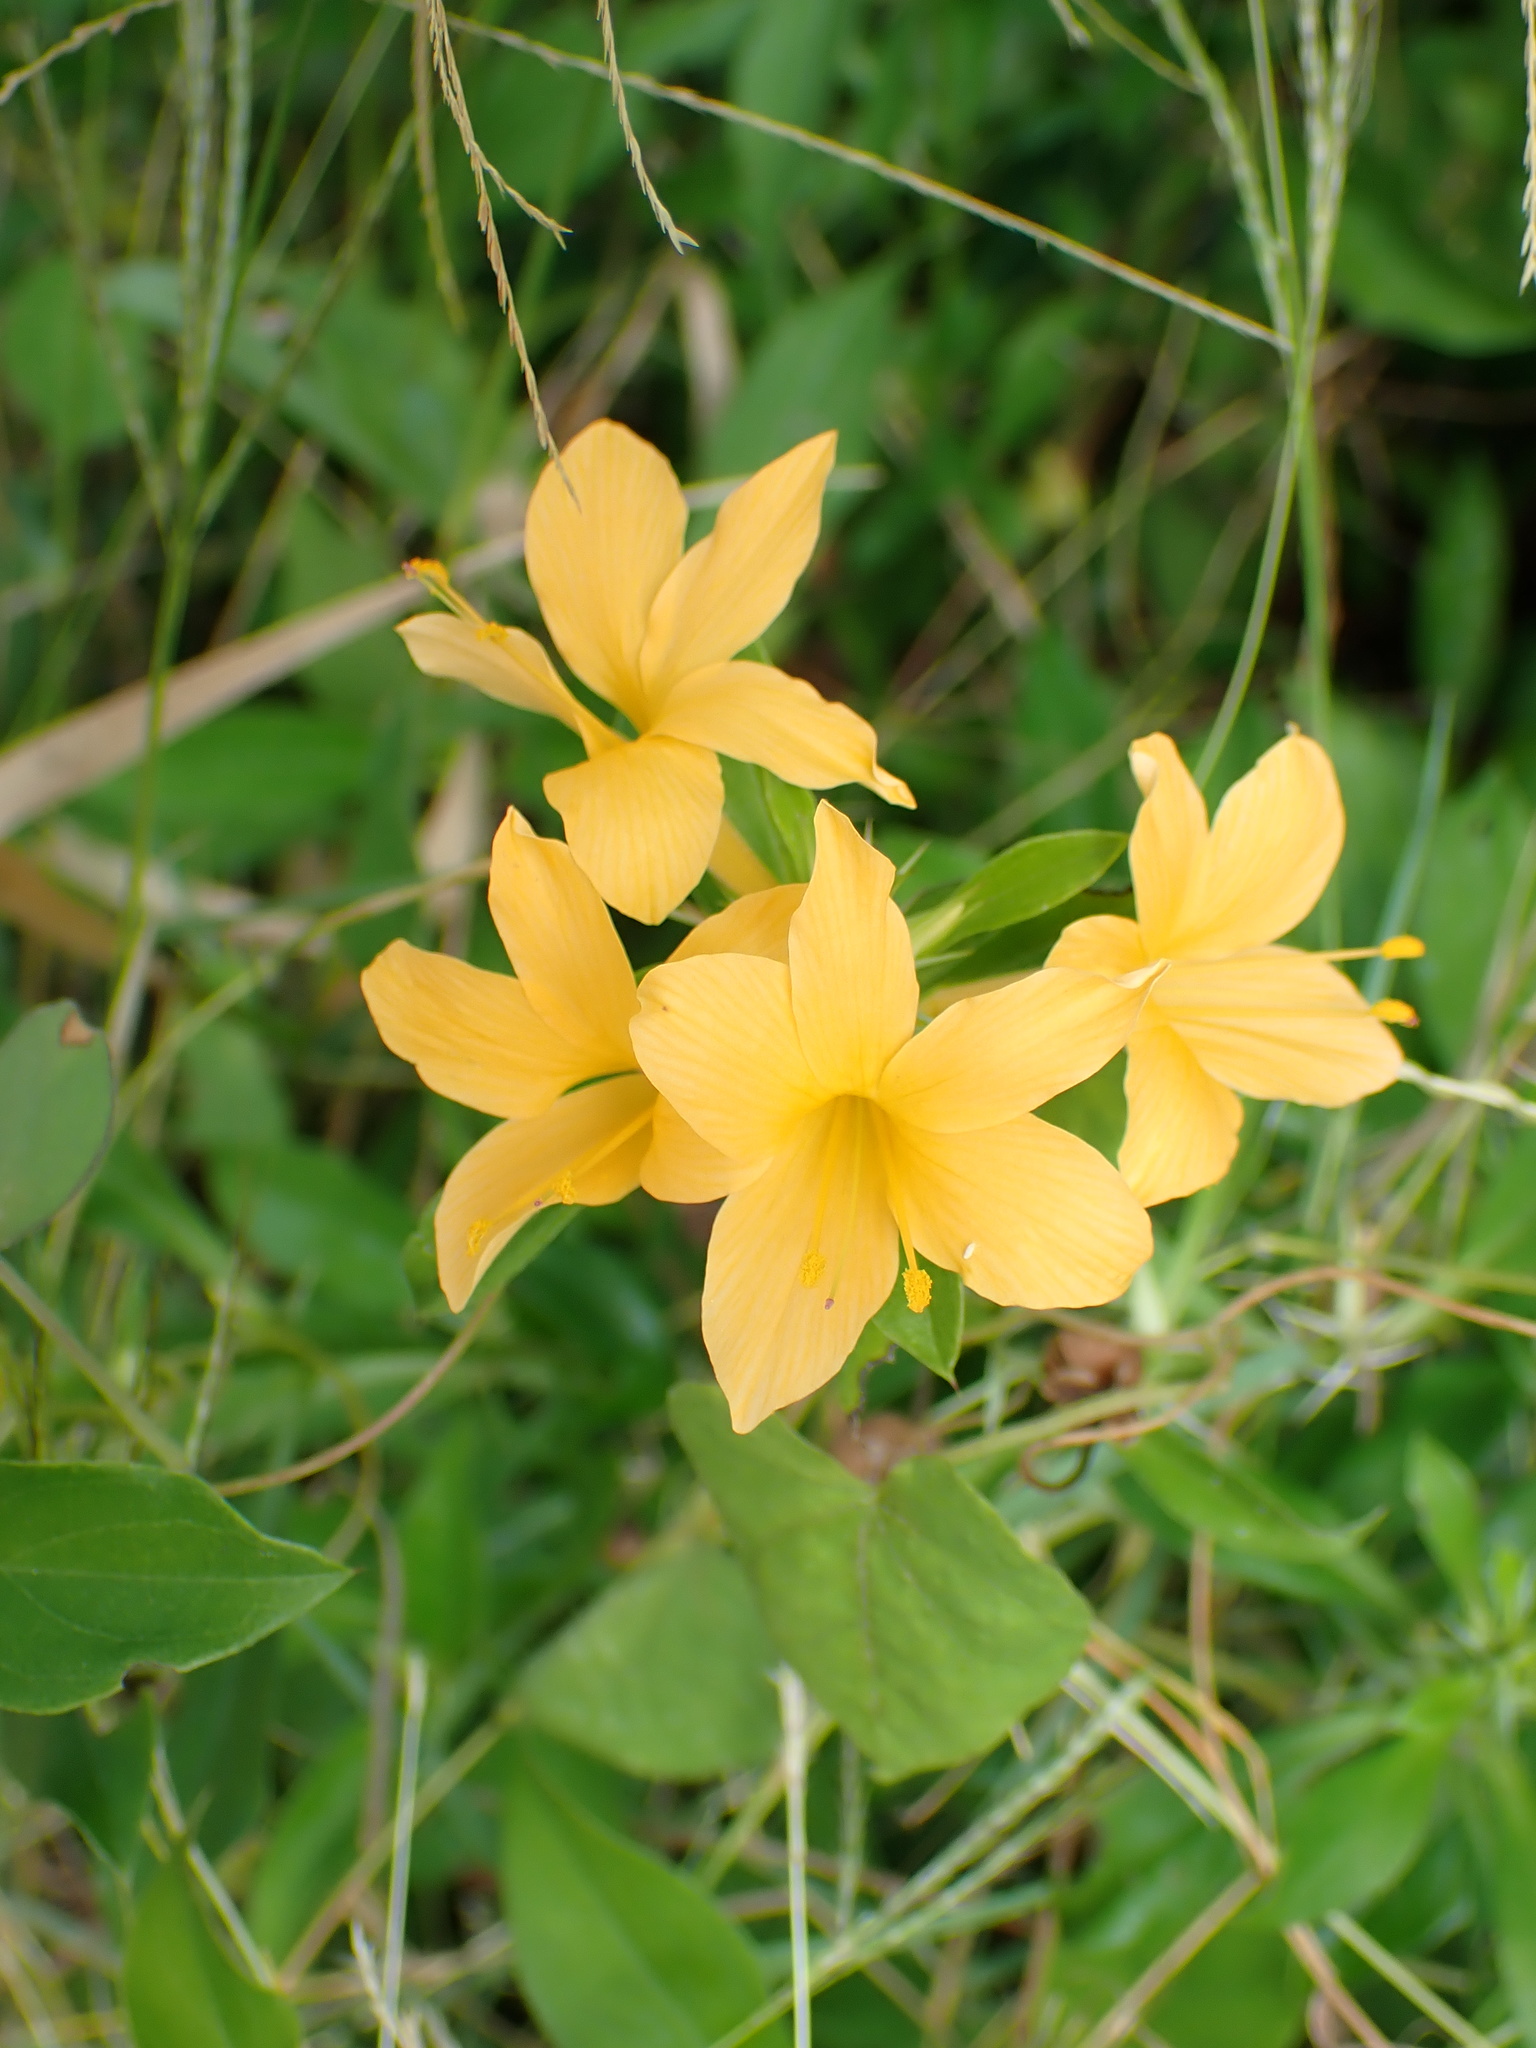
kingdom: Plantae
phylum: Tracheophyta
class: Magnoliopsida
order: Lamiales
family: Acanthaceae
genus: Barleria
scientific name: Barleria prionitis
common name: Barleria
